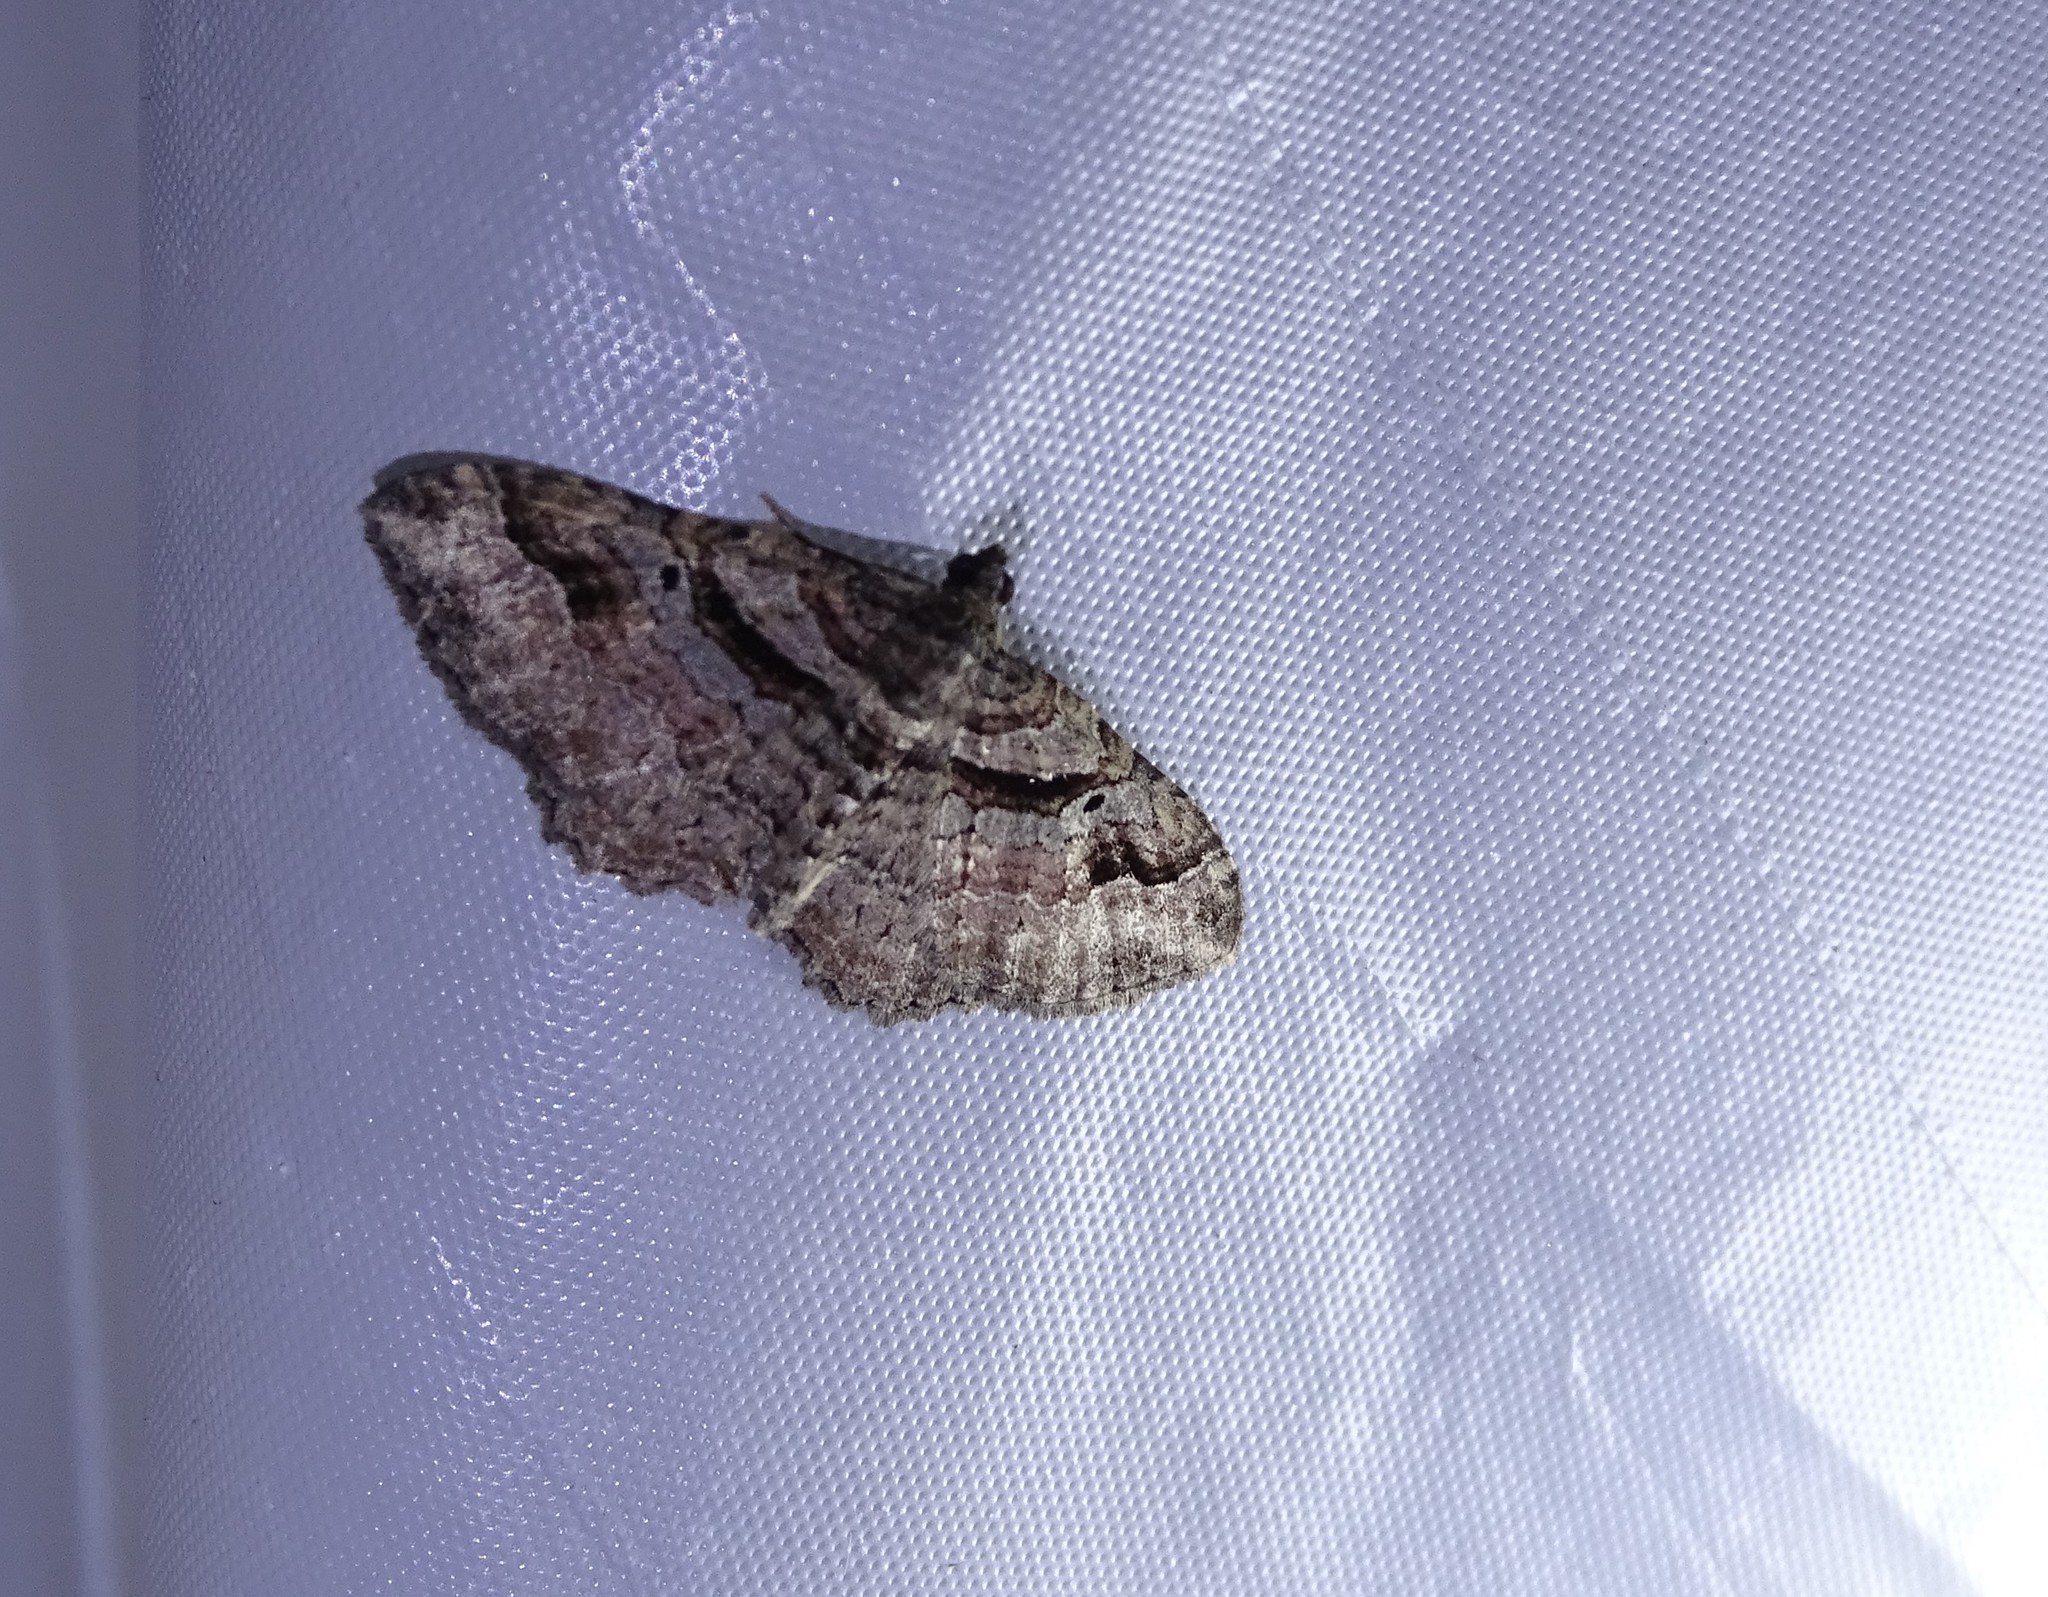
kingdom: Animalia
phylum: Arthropoda
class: Insecta
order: Lepidoptera
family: Geometridae
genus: Costaconvexa
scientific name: Costaconvexa centrostrigaria
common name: Bent-line carpet
